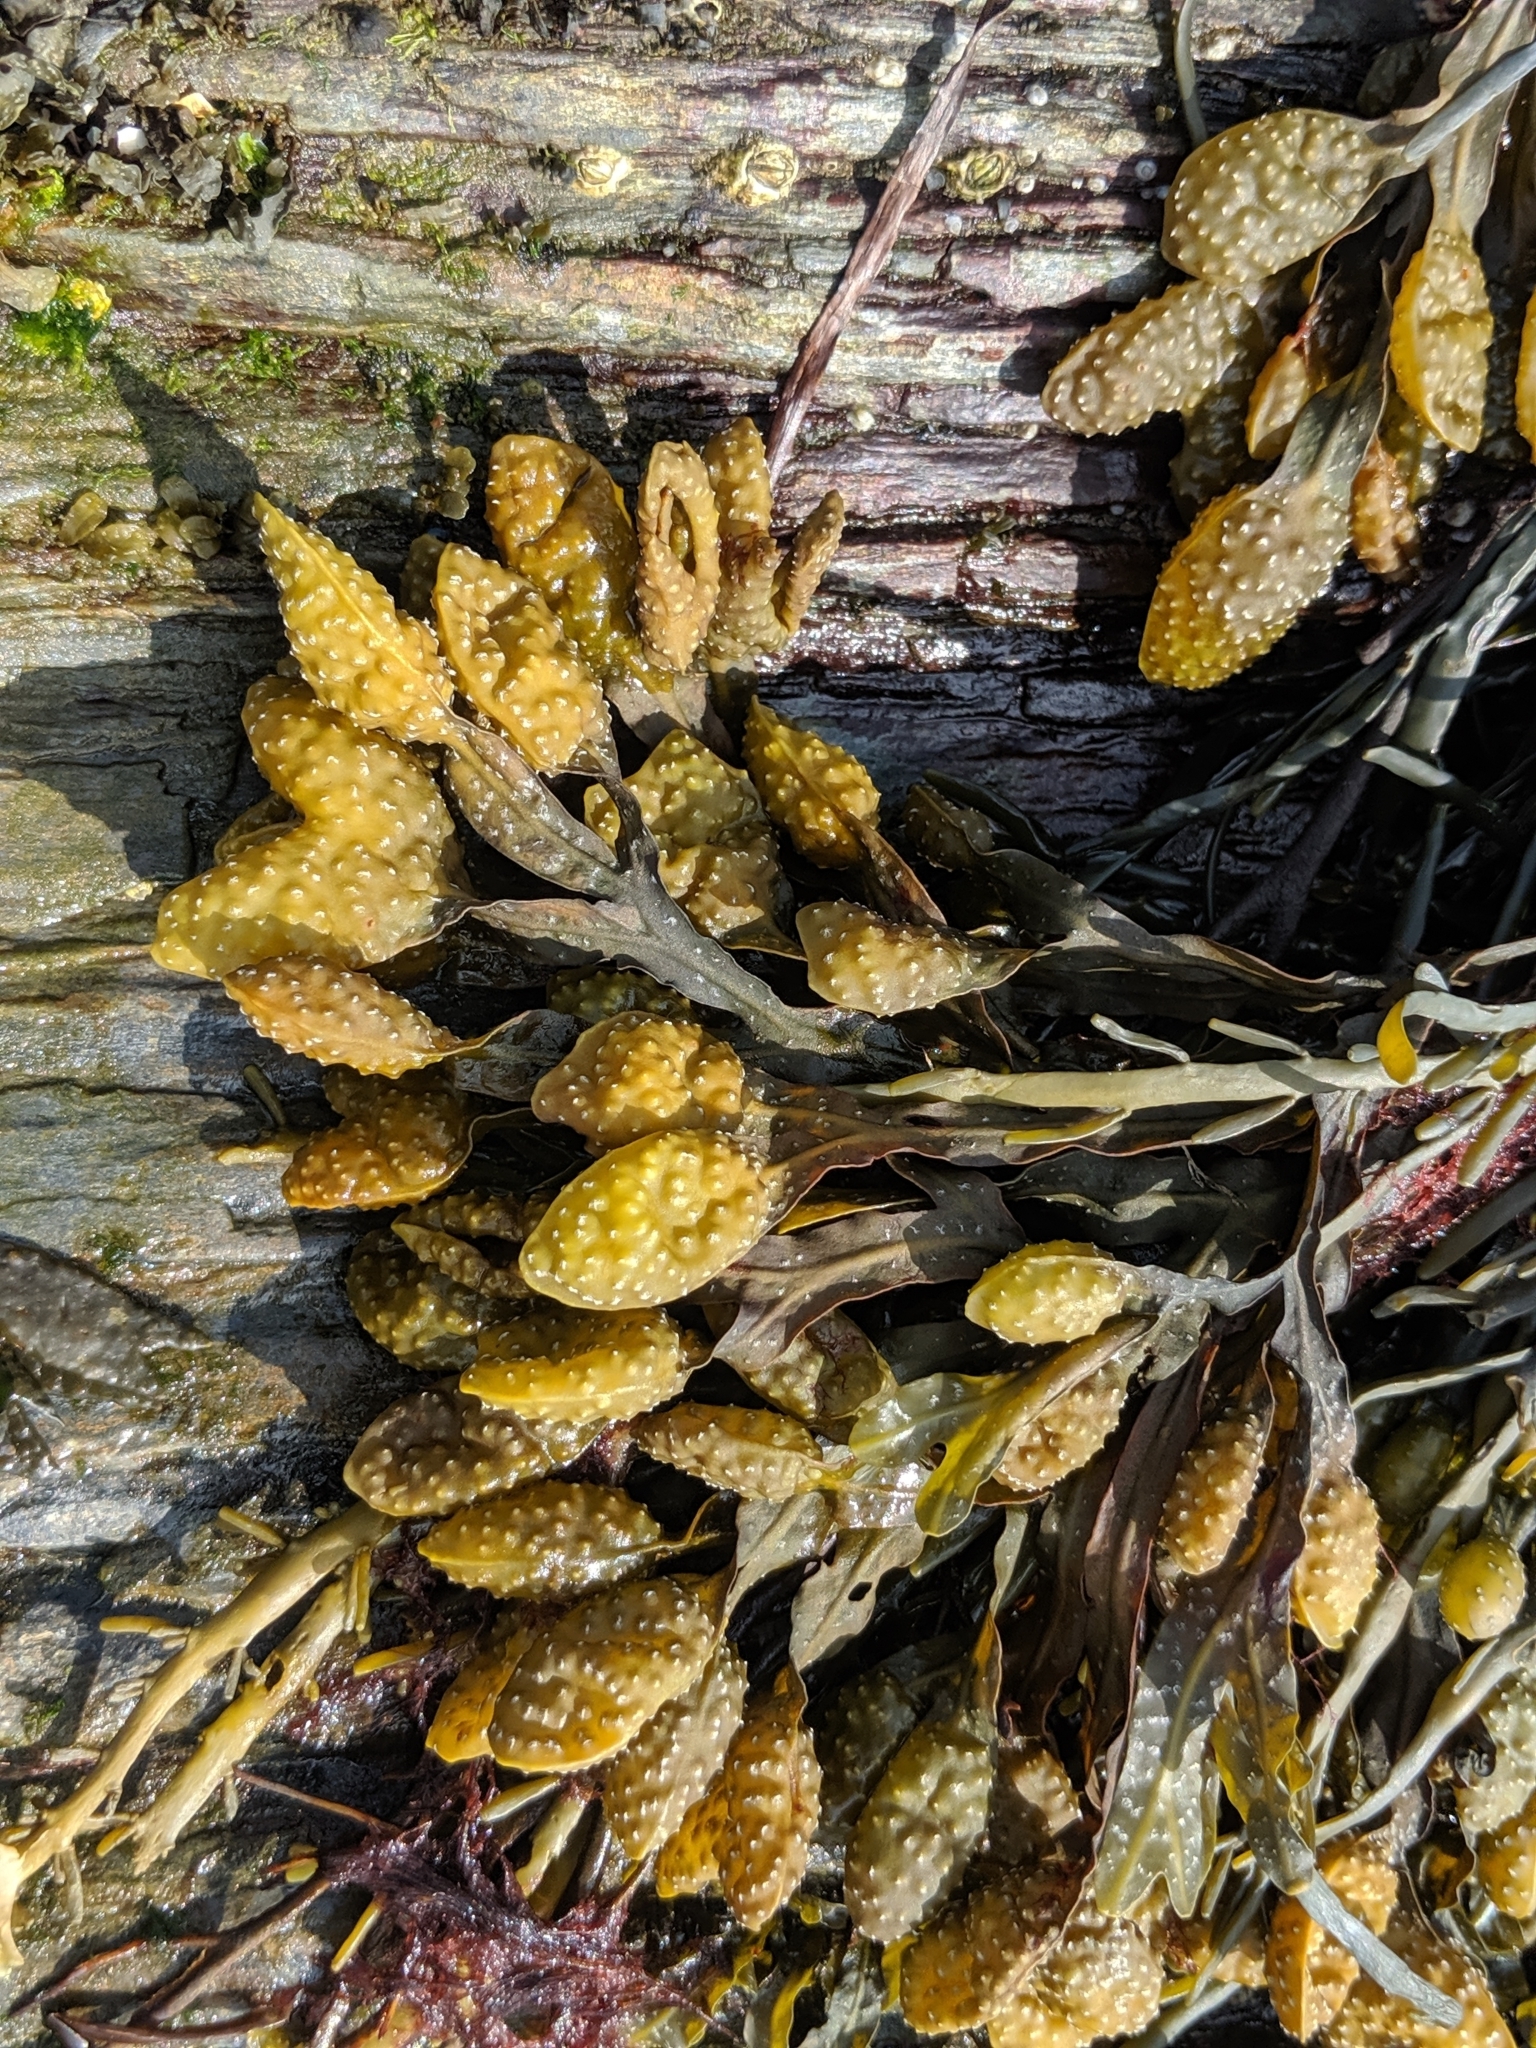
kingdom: Chromista
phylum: Ochrophyta
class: Phaeophyceae
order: Fucales
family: Fucaceae
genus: Fucus
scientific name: Fucus spiralis
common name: Spiral wrack
